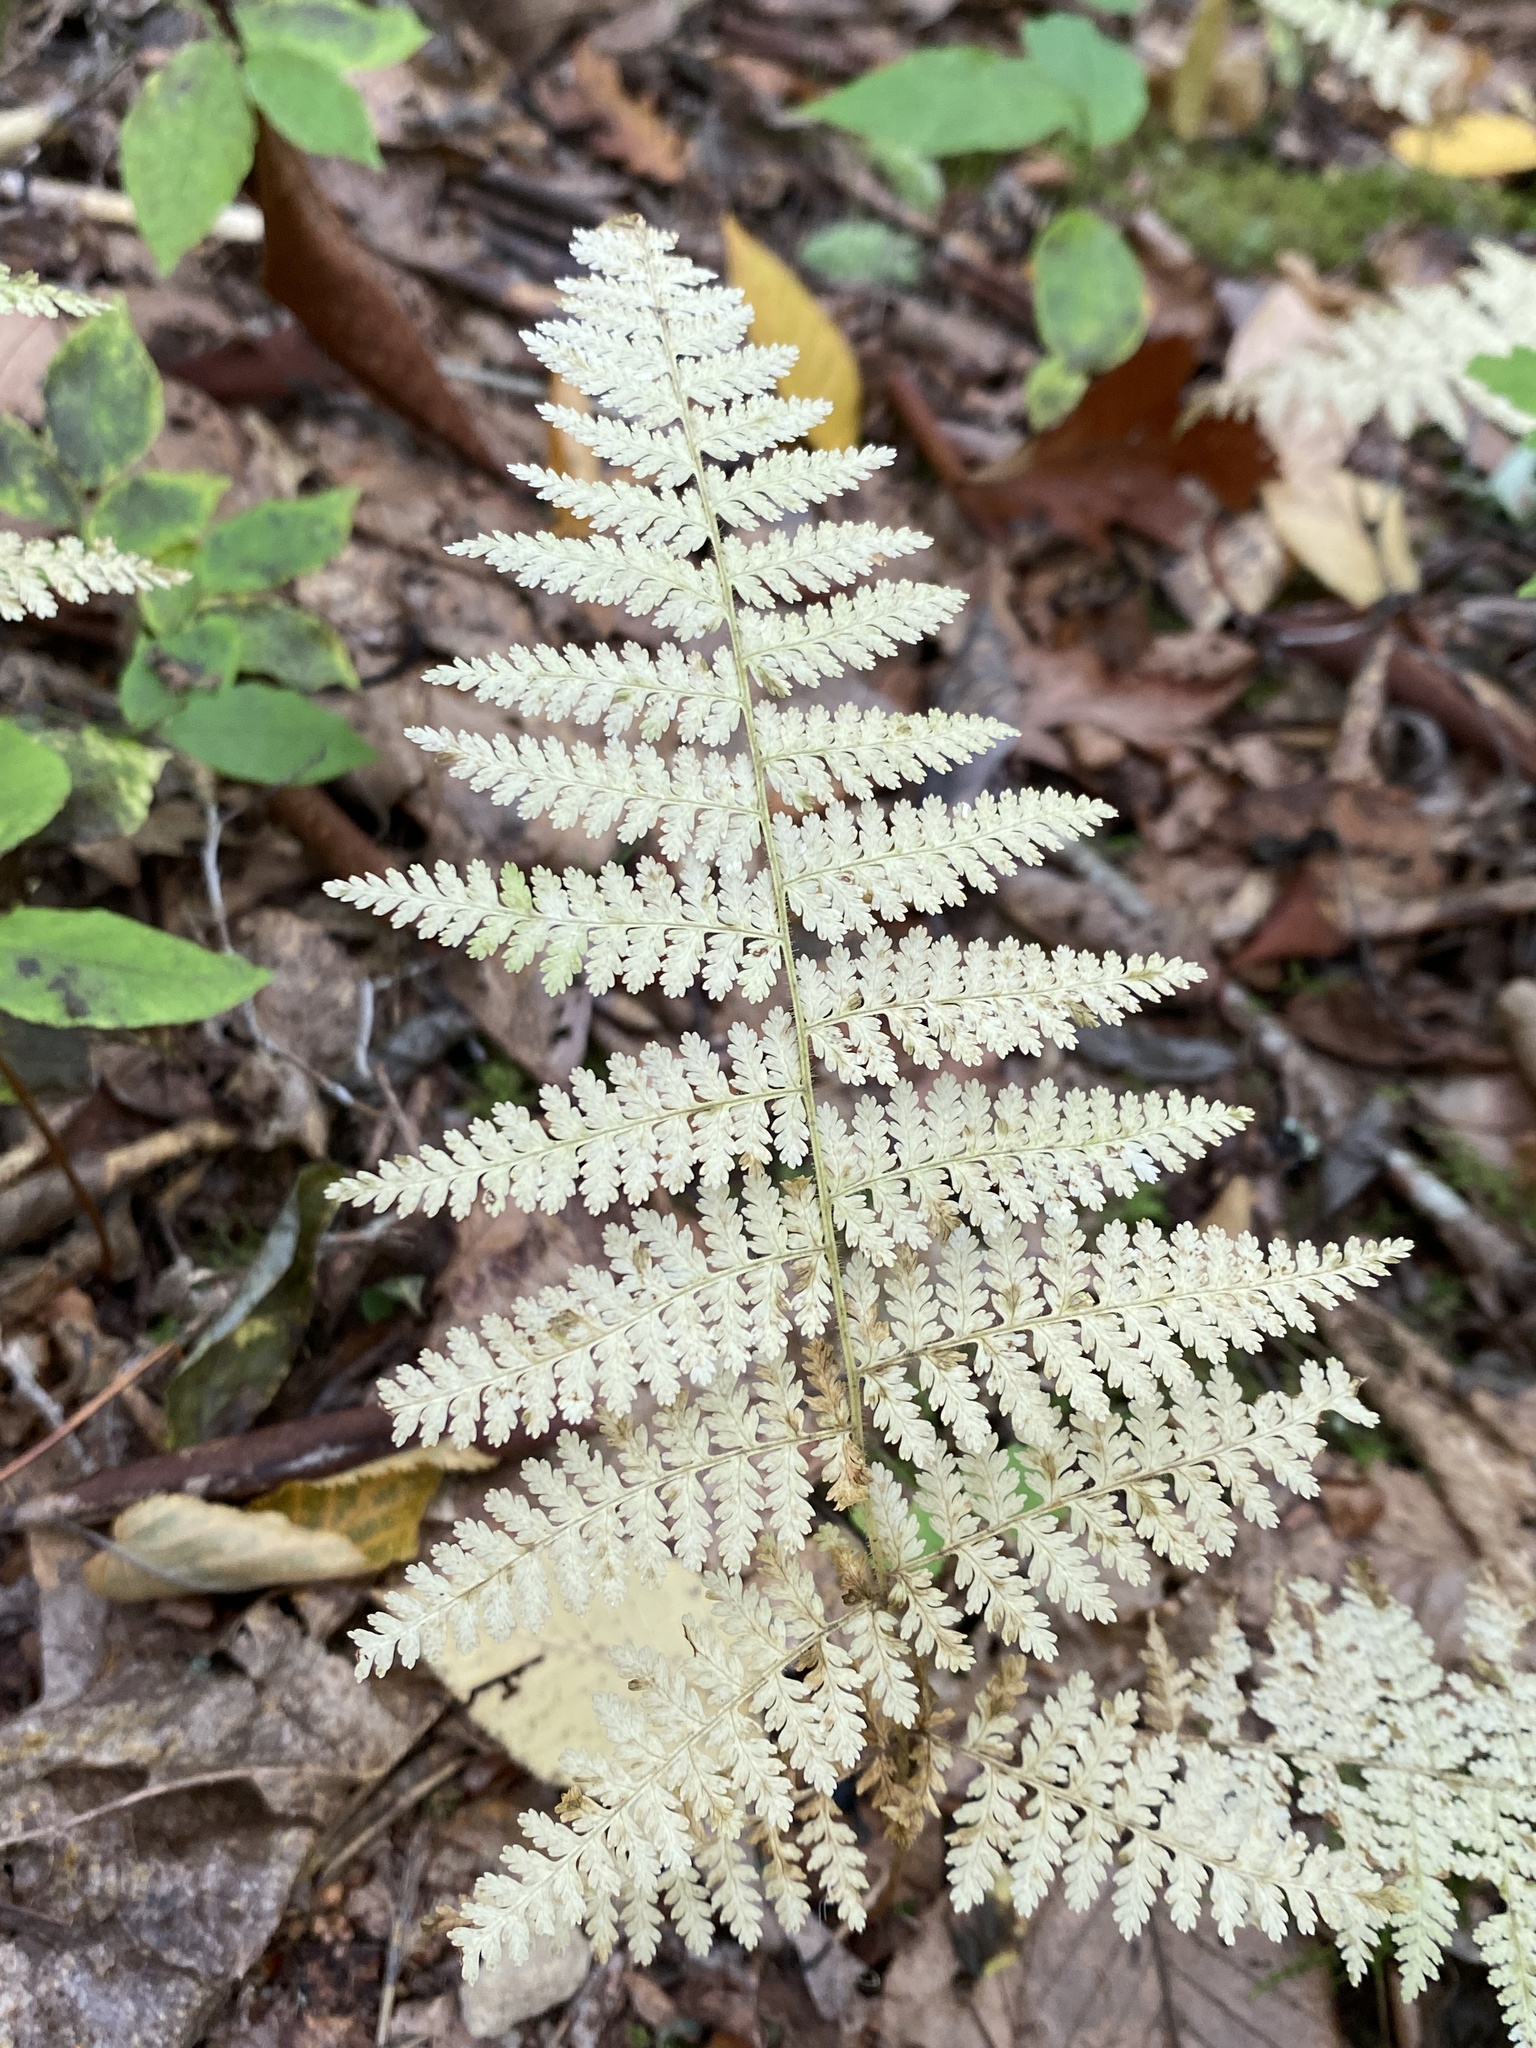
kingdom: Plantae
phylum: Tracheophyta
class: Polypodiopsida
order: Polypodiales
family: Dennstaedtiaceae
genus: Sitobolium
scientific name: Sitobolium punctilobum
